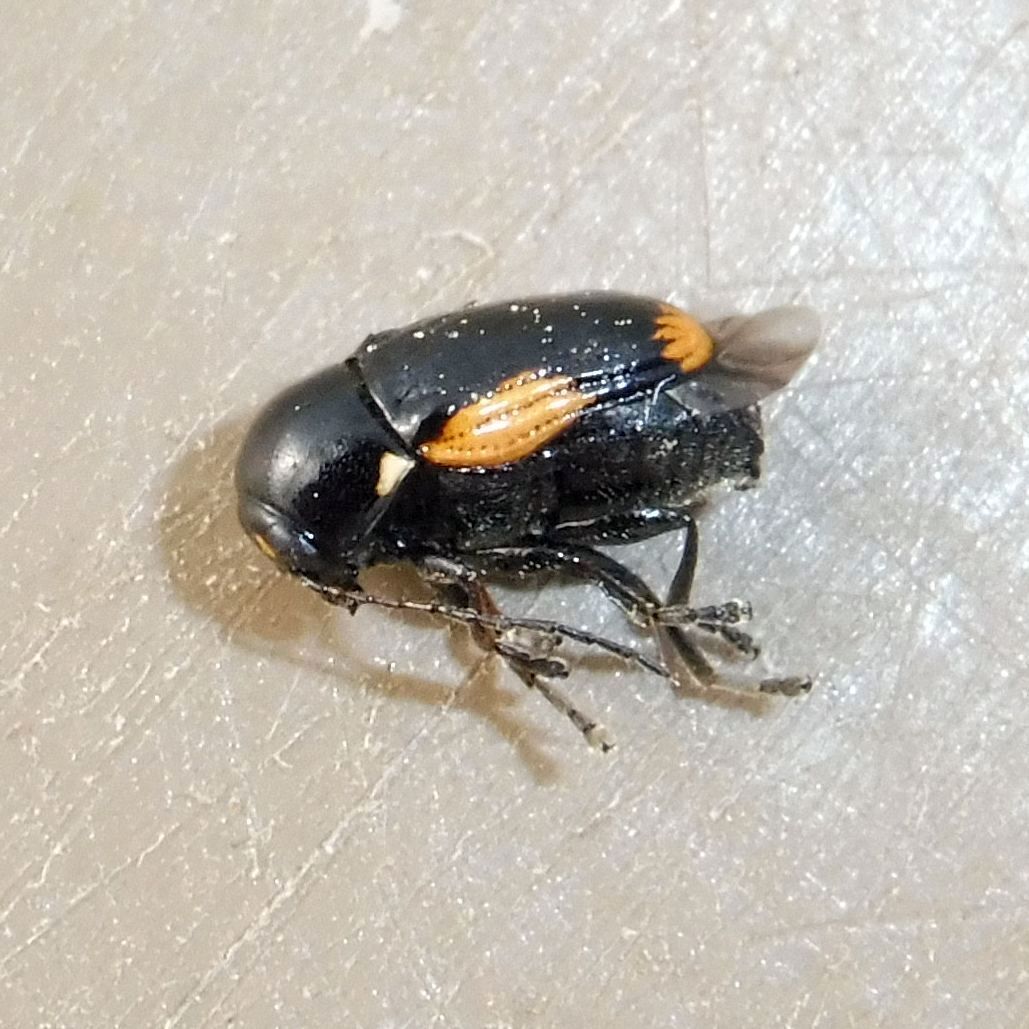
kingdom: Animalia
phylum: Arthropoda
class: Insecta
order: Coleoptera
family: Chrysomelidae
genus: Cryptocephalus
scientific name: Cryptocephalus moraei
